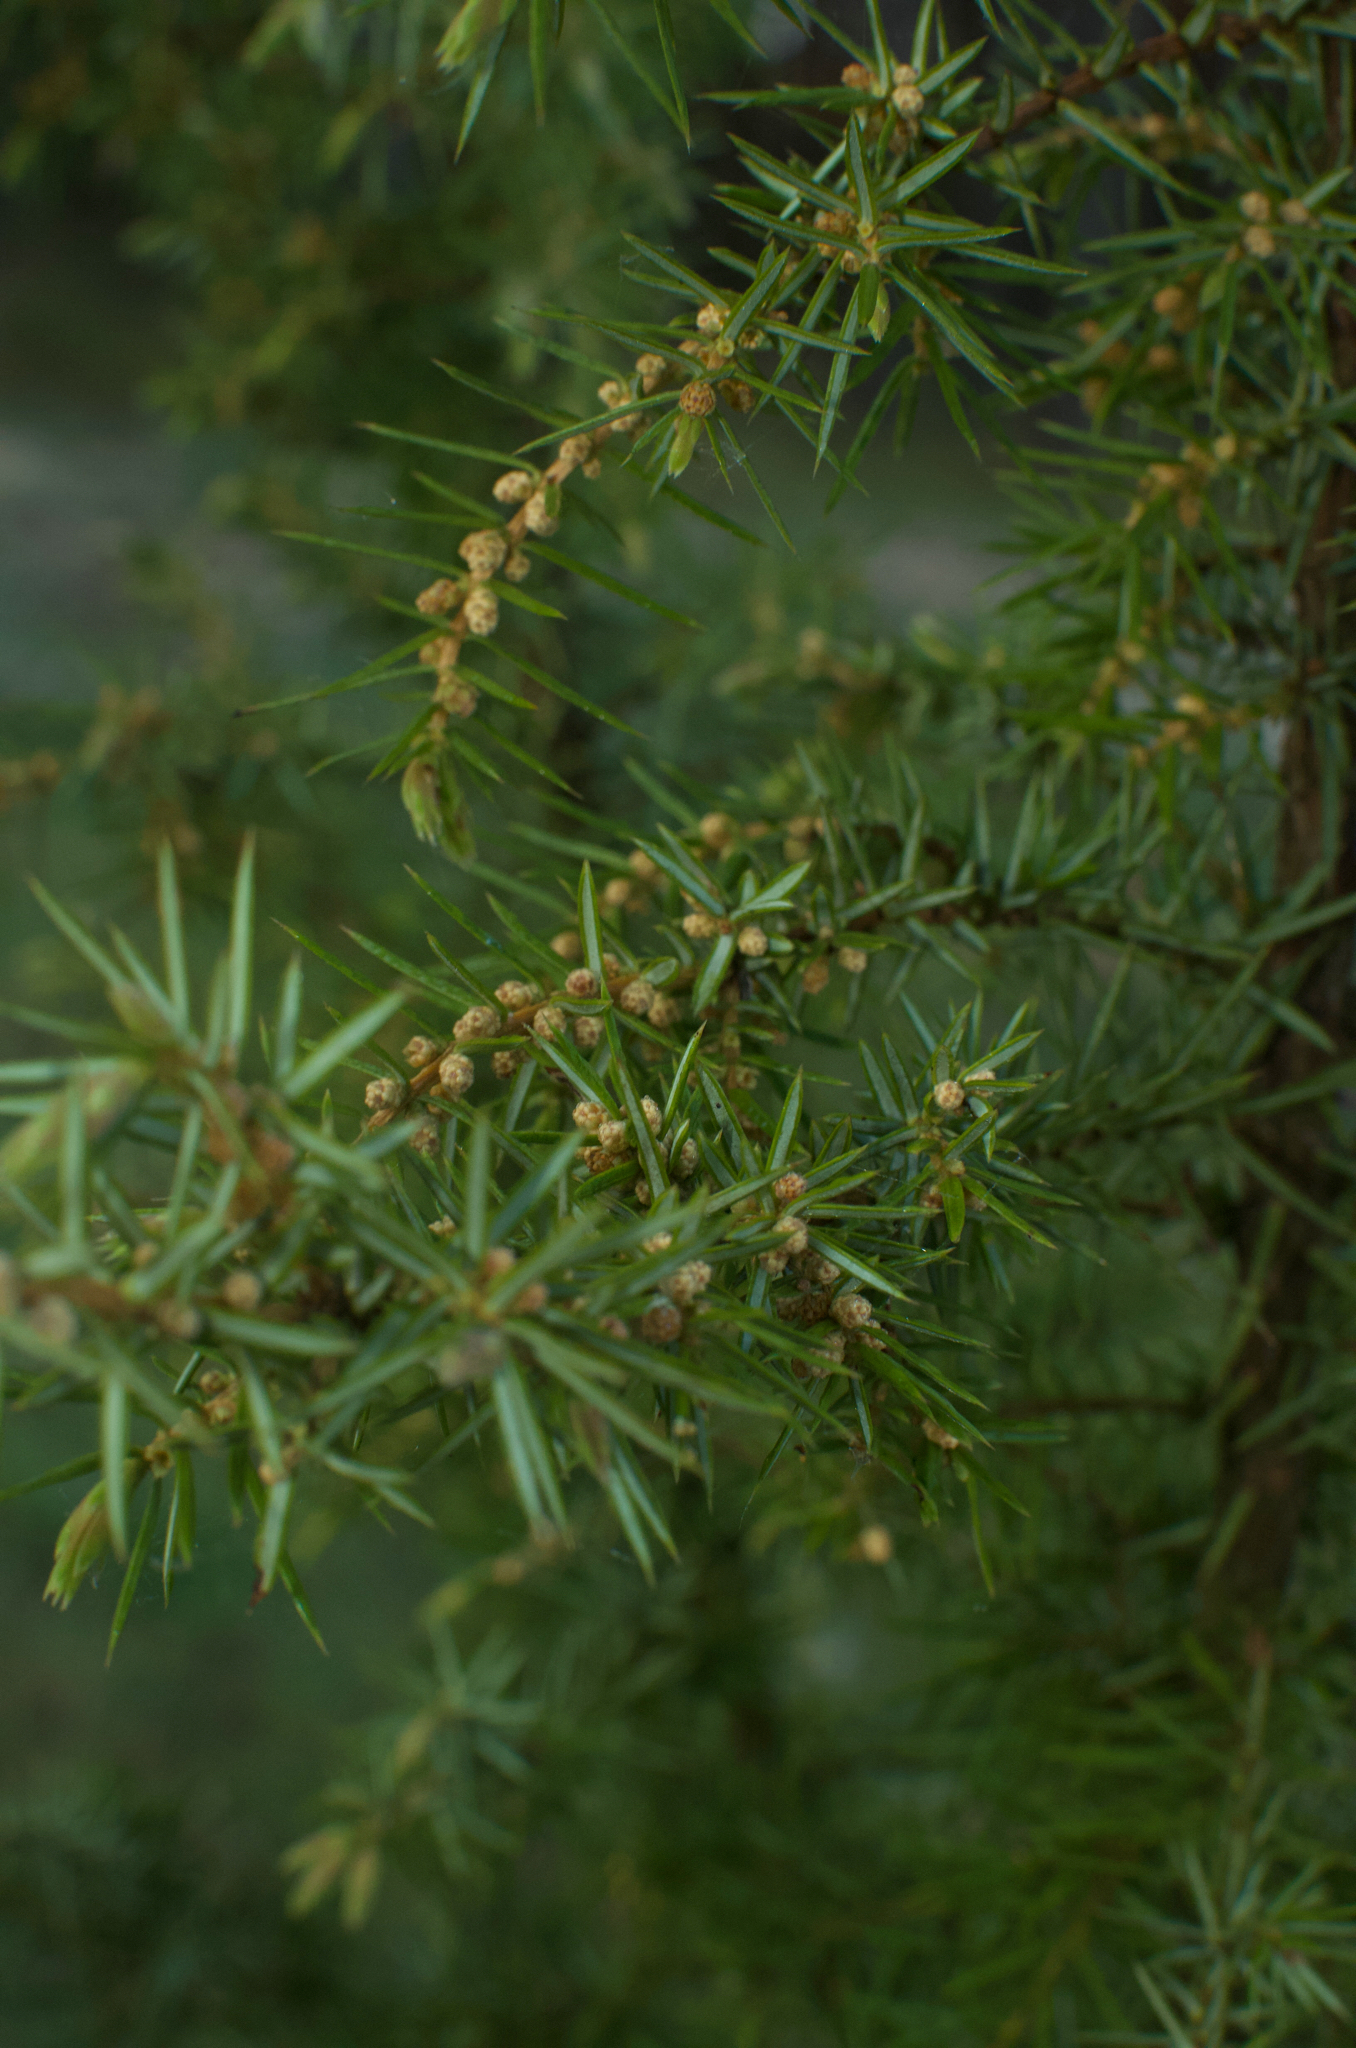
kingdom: Plantae
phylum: Tracheophyta
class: Pinopsida
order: Pinales
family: Cupressaceae
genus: Juniperus
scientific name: Juniperus communis
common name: Common juniper
